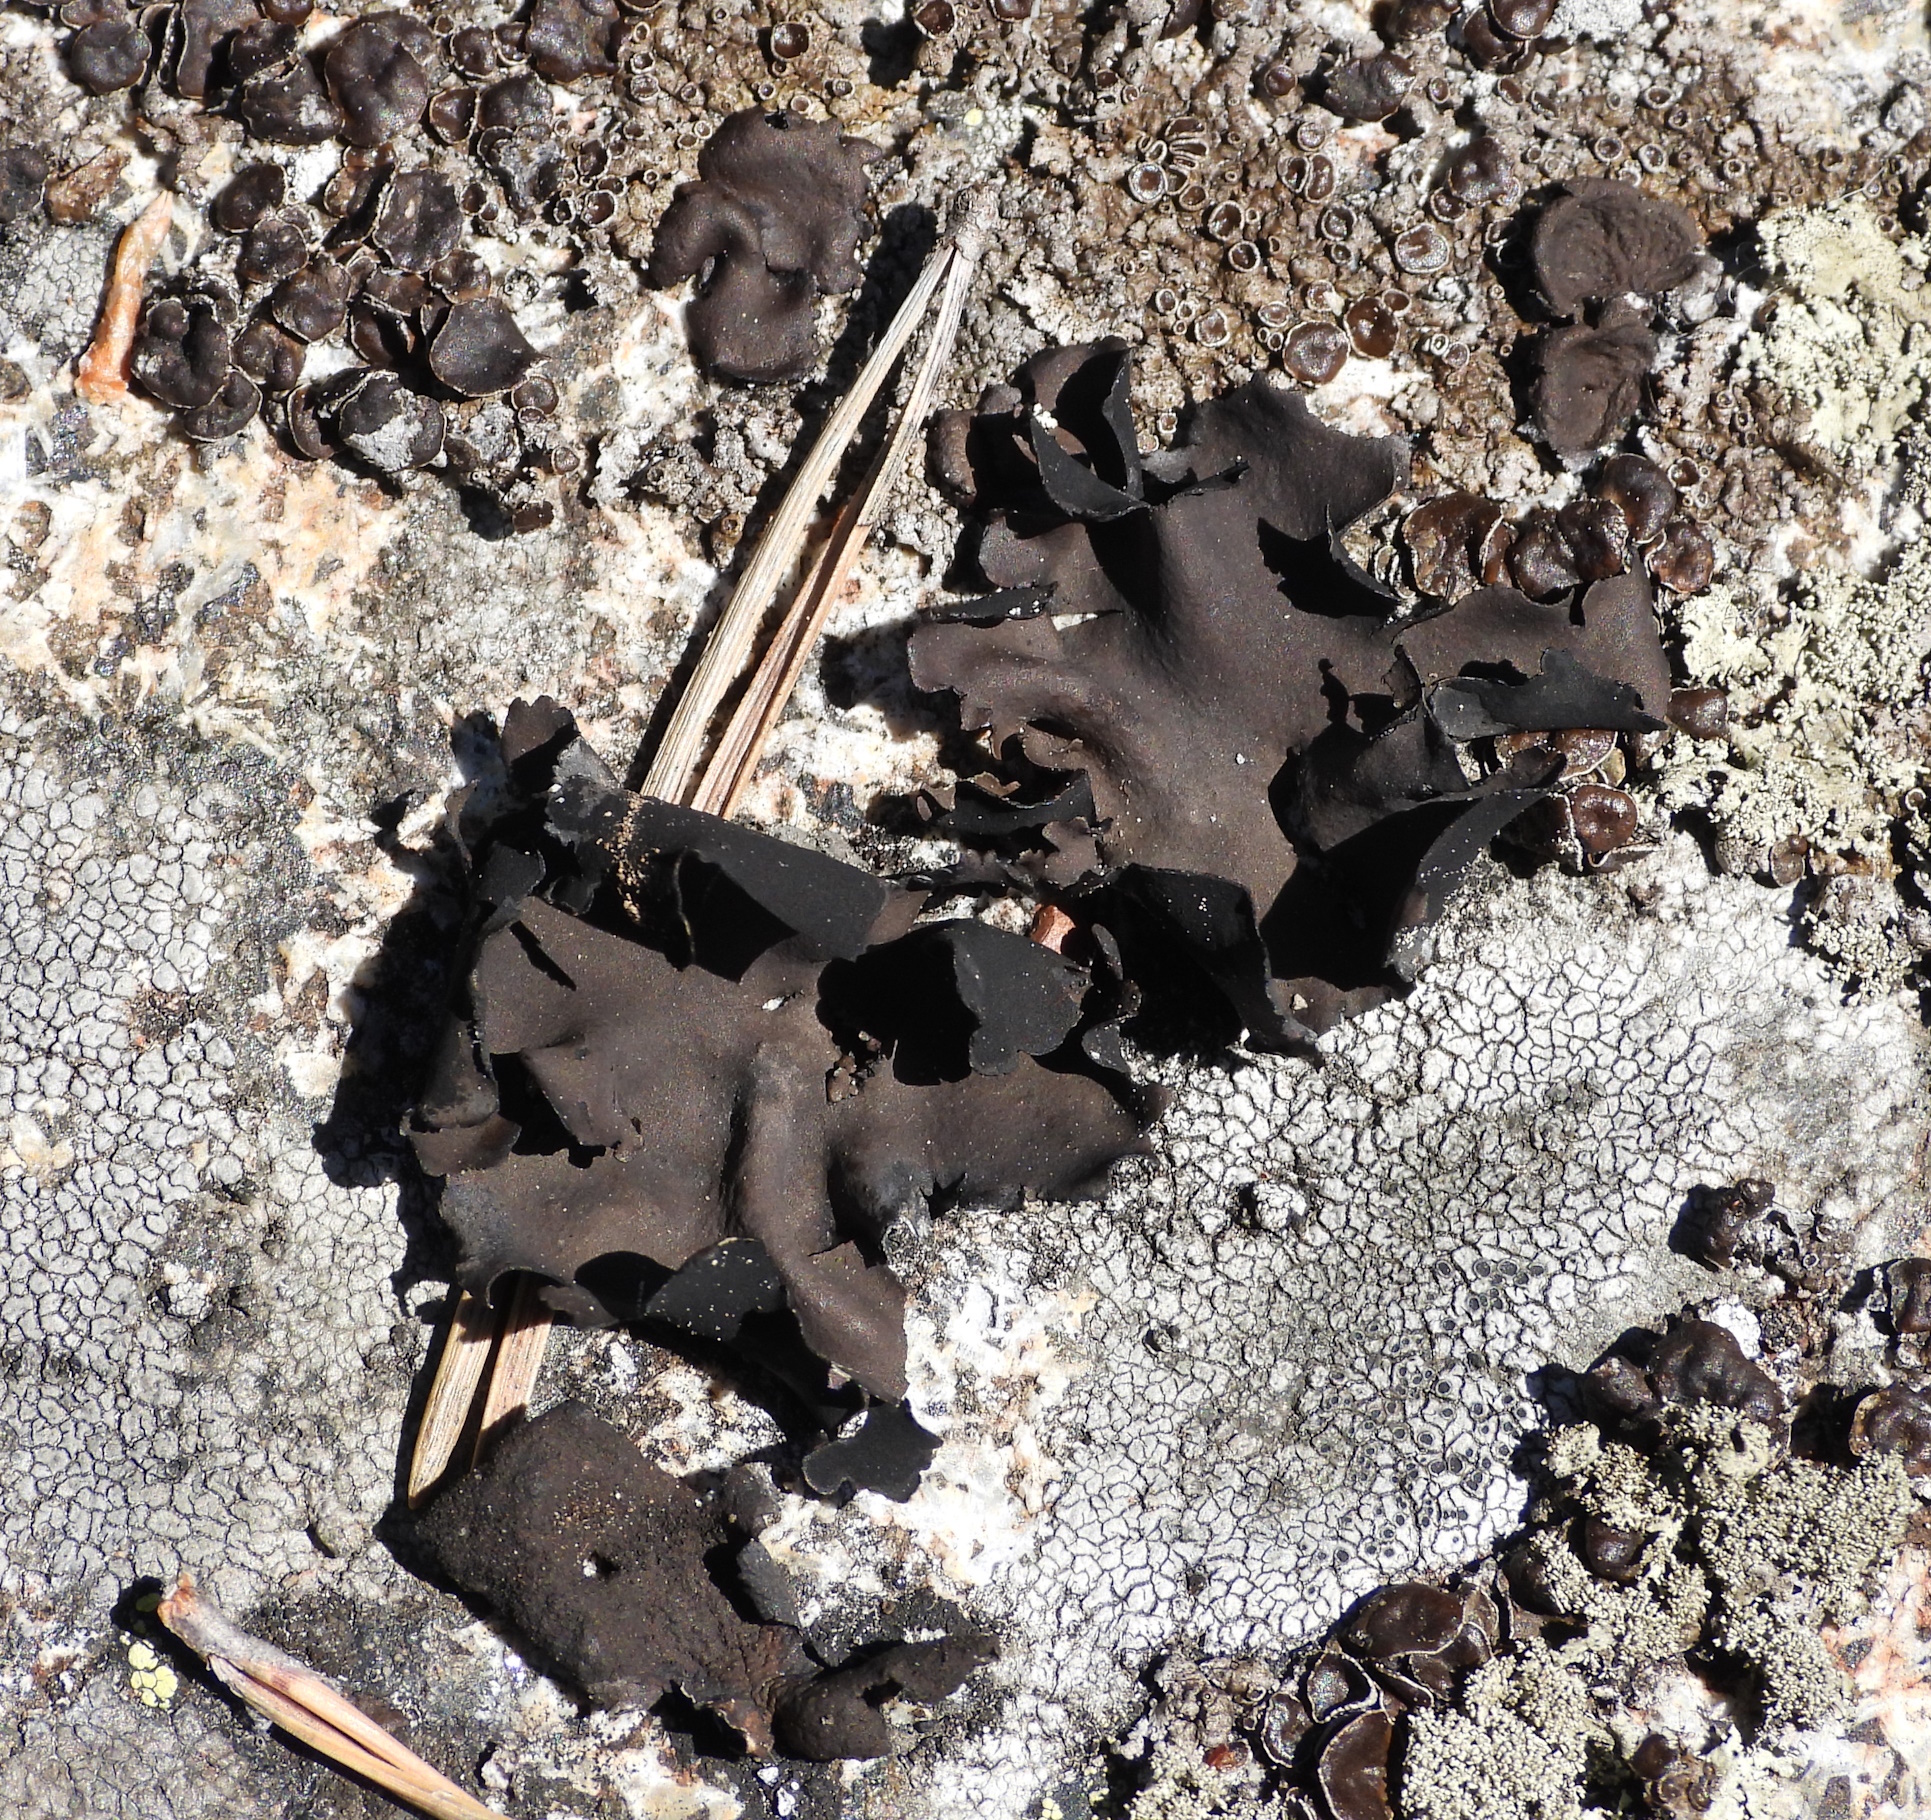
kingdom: Fungi
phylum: Ascomycota
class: Lecanoromycetes
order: Umbilicariales
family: Umbilicariaceae
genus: Umbilicaria
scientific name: Umbilicaria polyphylla
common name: Petalled rocktripe lichen
